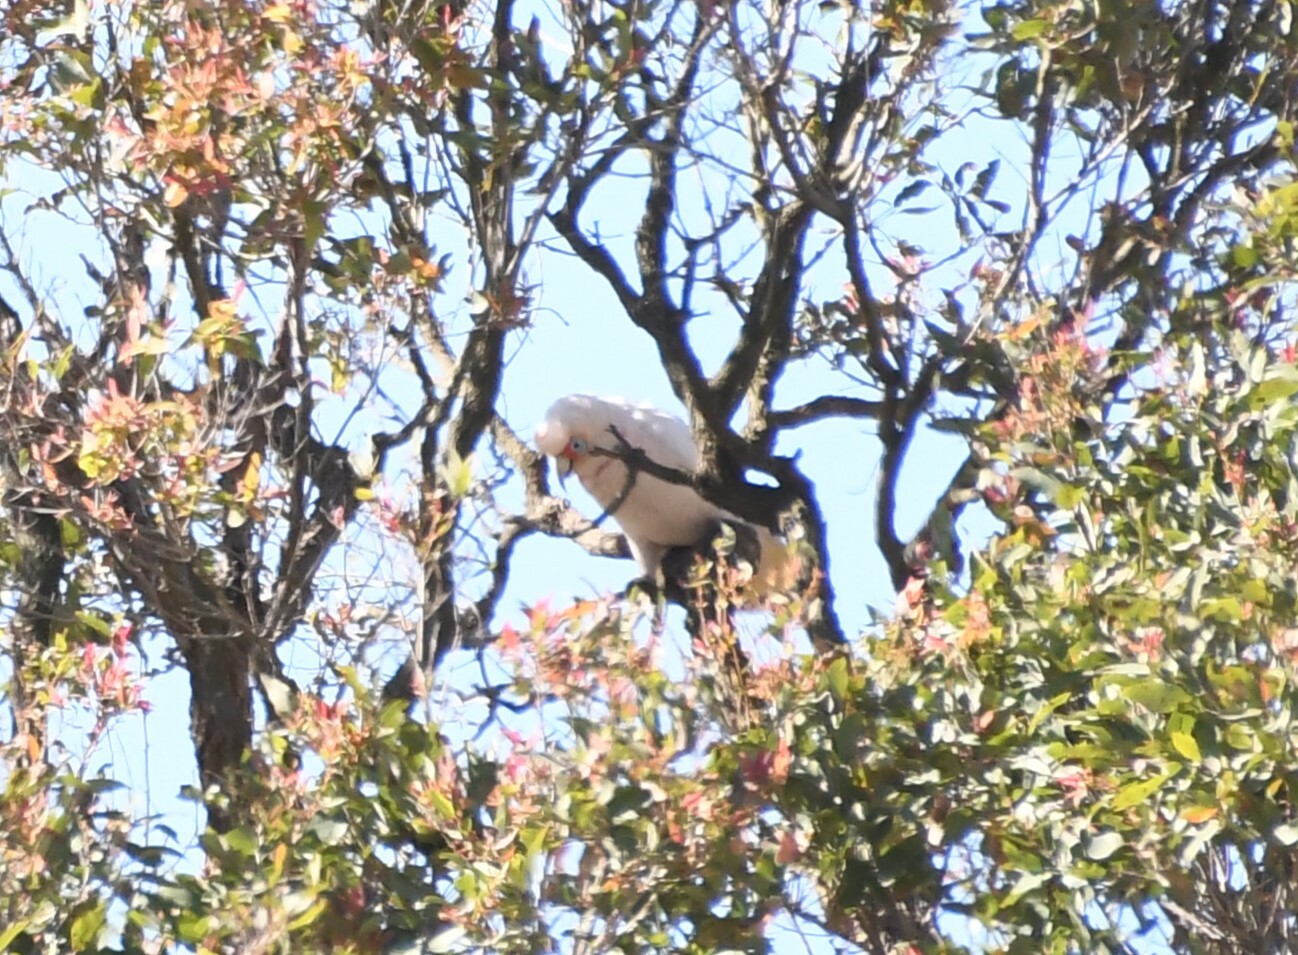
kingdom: Animalia
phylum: Chordata
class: Aves
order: Psittaciformes
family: Psittacidae
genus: Cacatua
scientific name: Cacatua tenuirostris
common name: Long-billed corella
